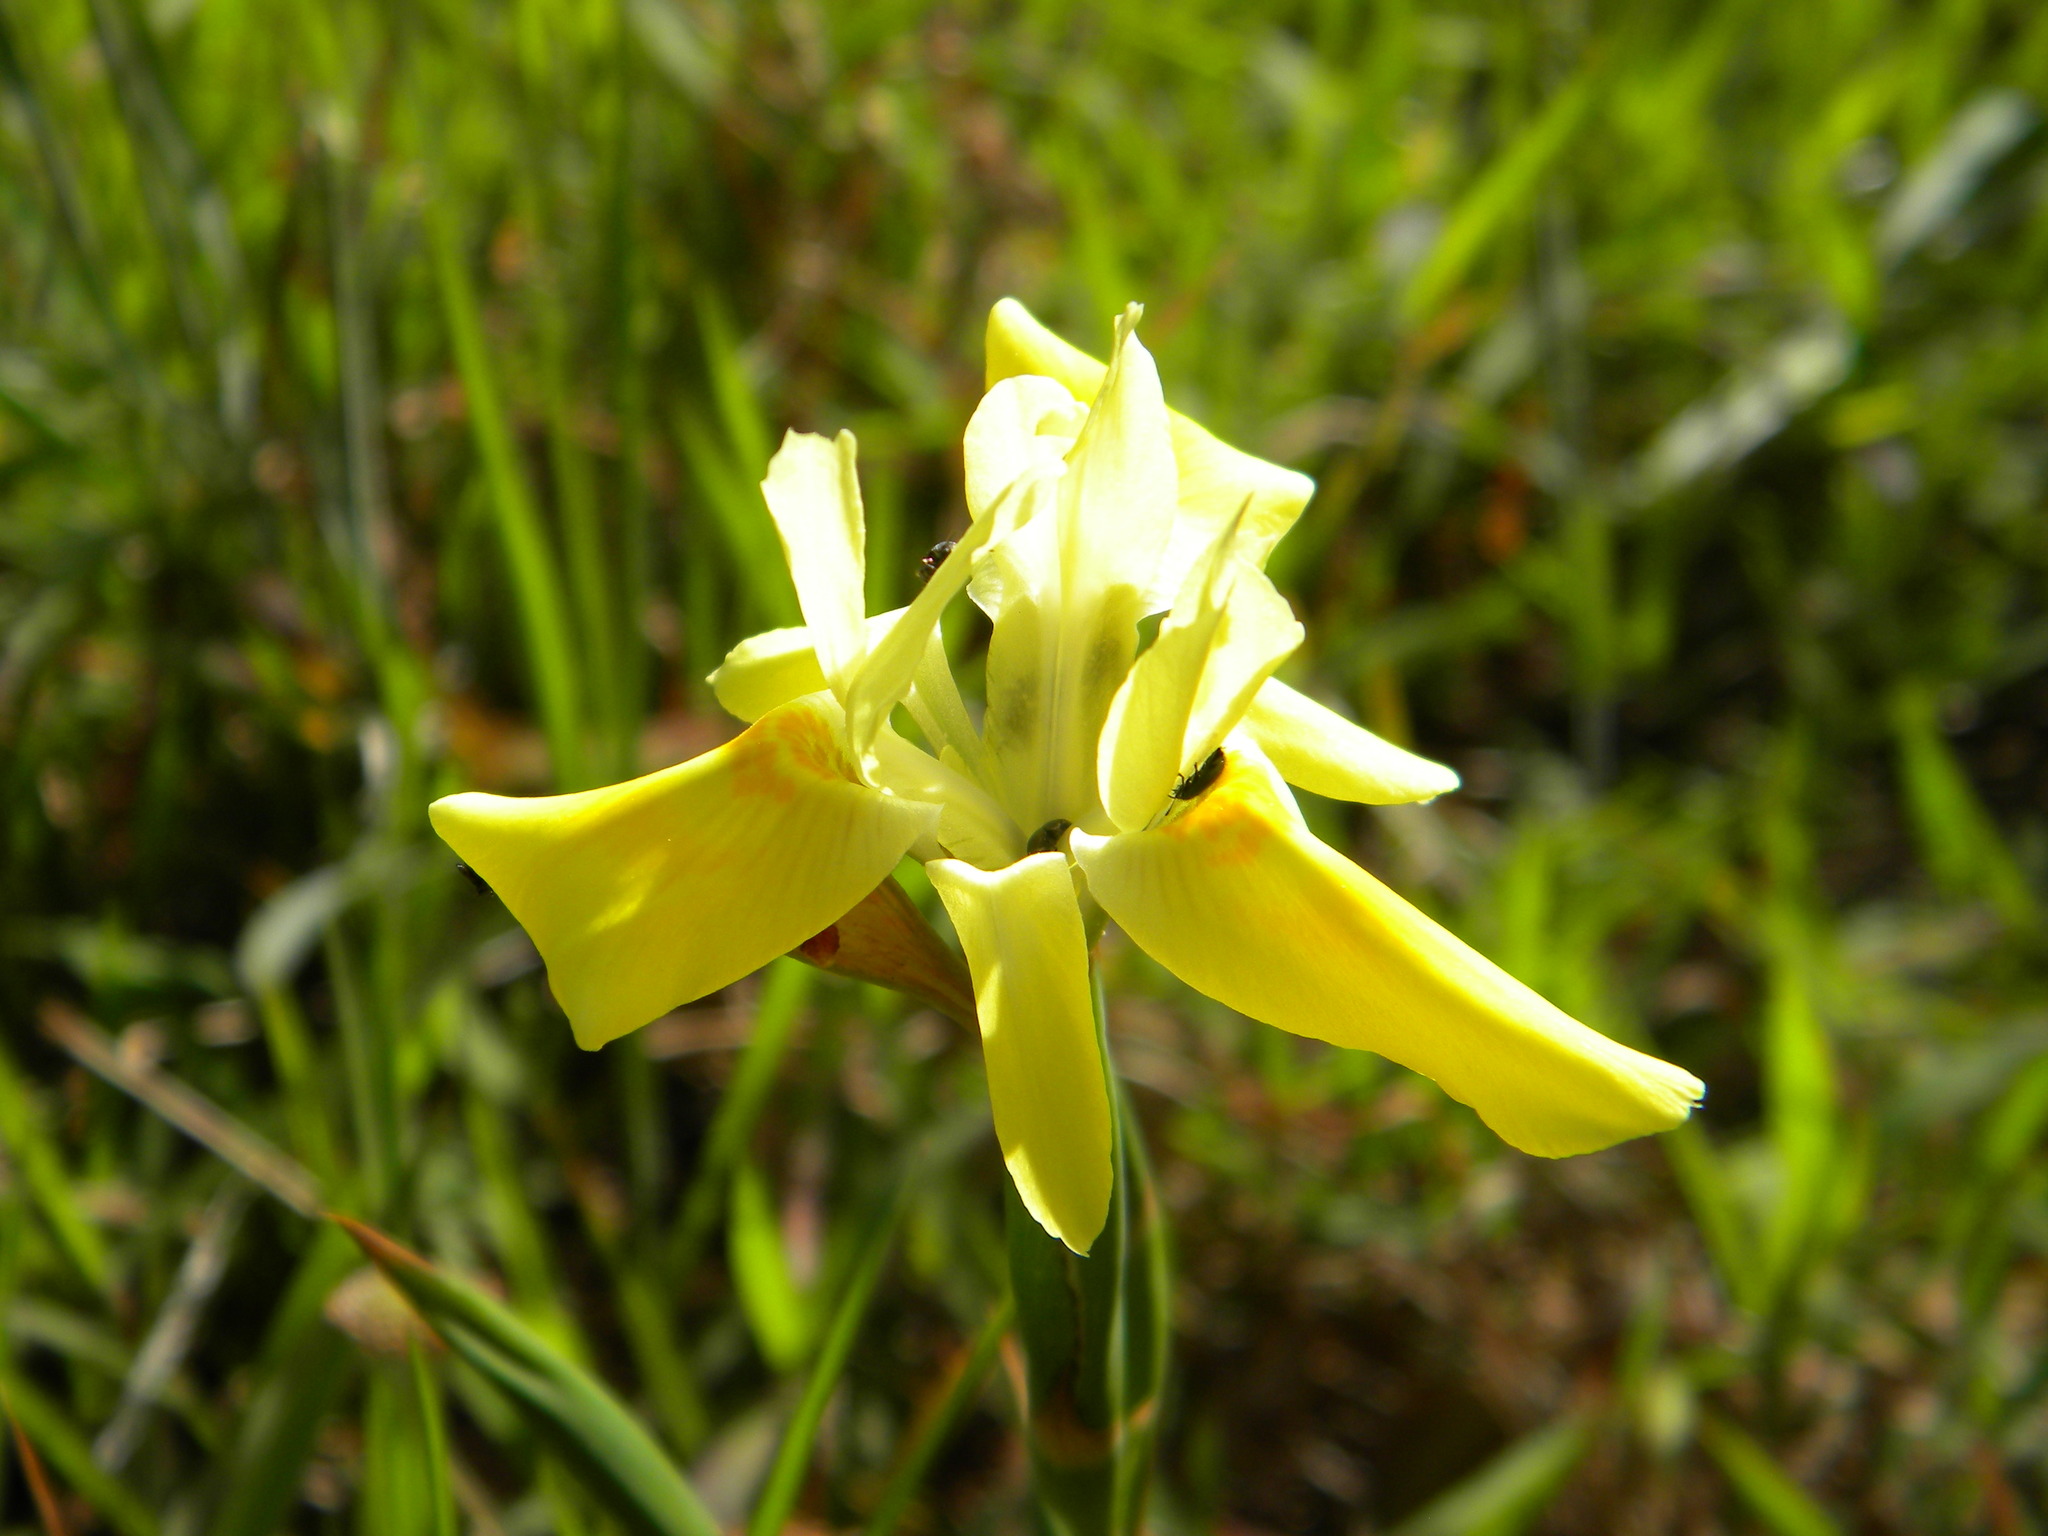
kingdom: Plantae
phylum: Tracheophyta
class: Liliopsida
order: Asparagales
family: Iridaceae
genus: Moraea
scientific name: Moraea fugax
